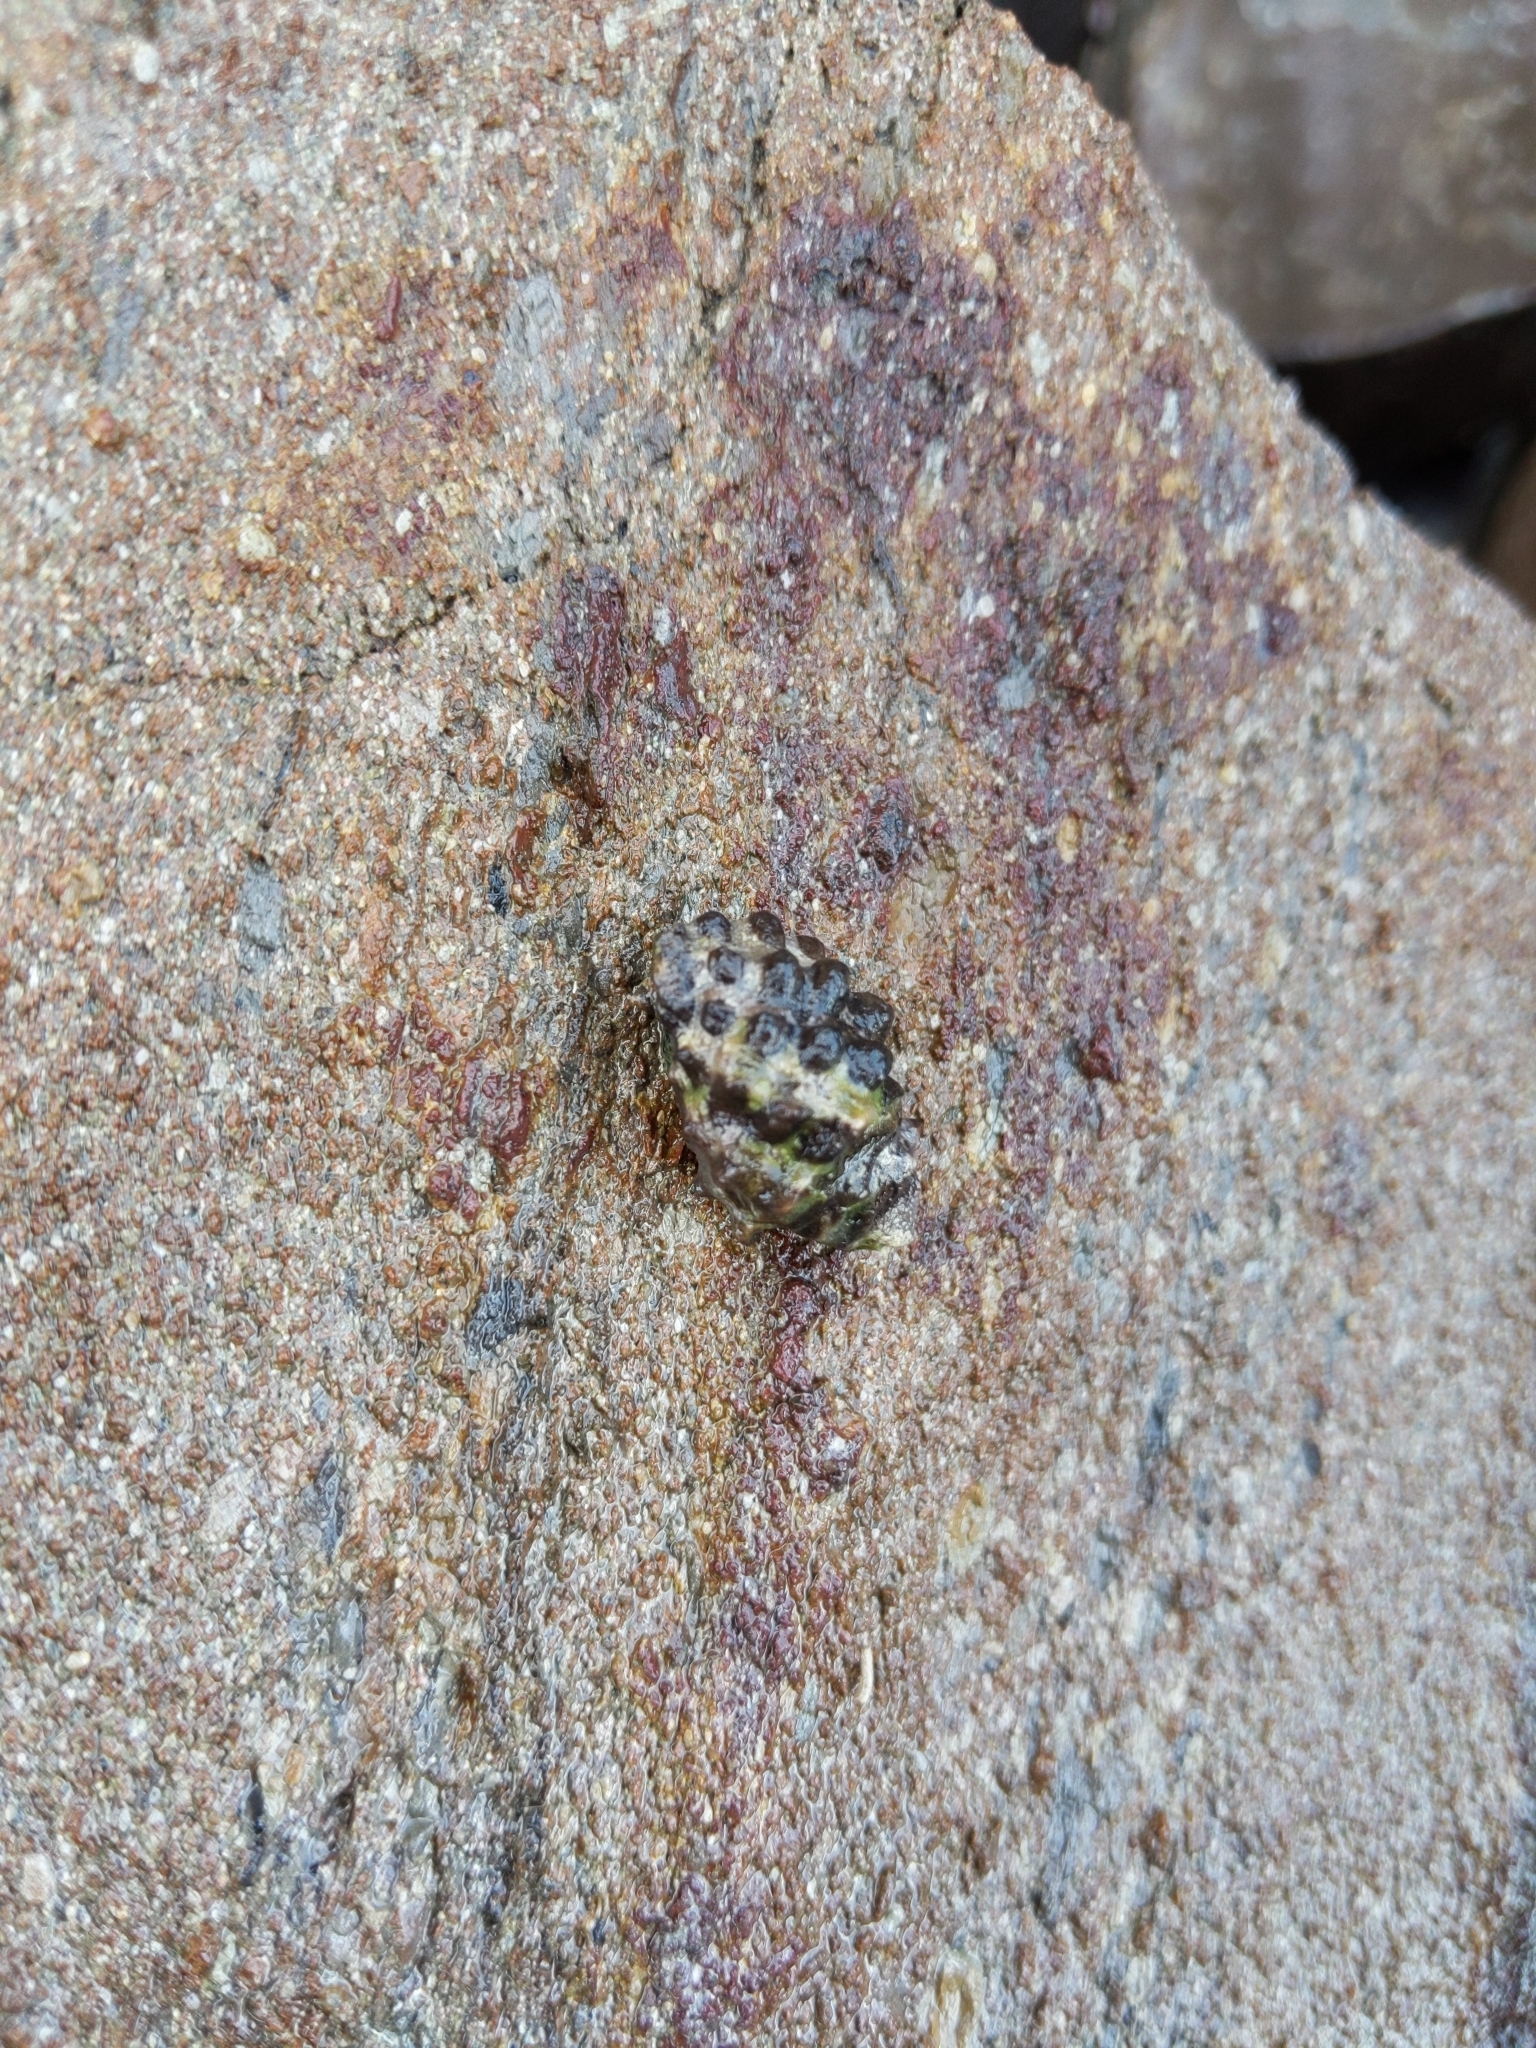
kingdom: Animalia
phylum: Mollusca
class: Gastropoda
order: Neogastropoda
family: Muricidae
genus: Tenguella
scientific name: Tenguella marginalba
